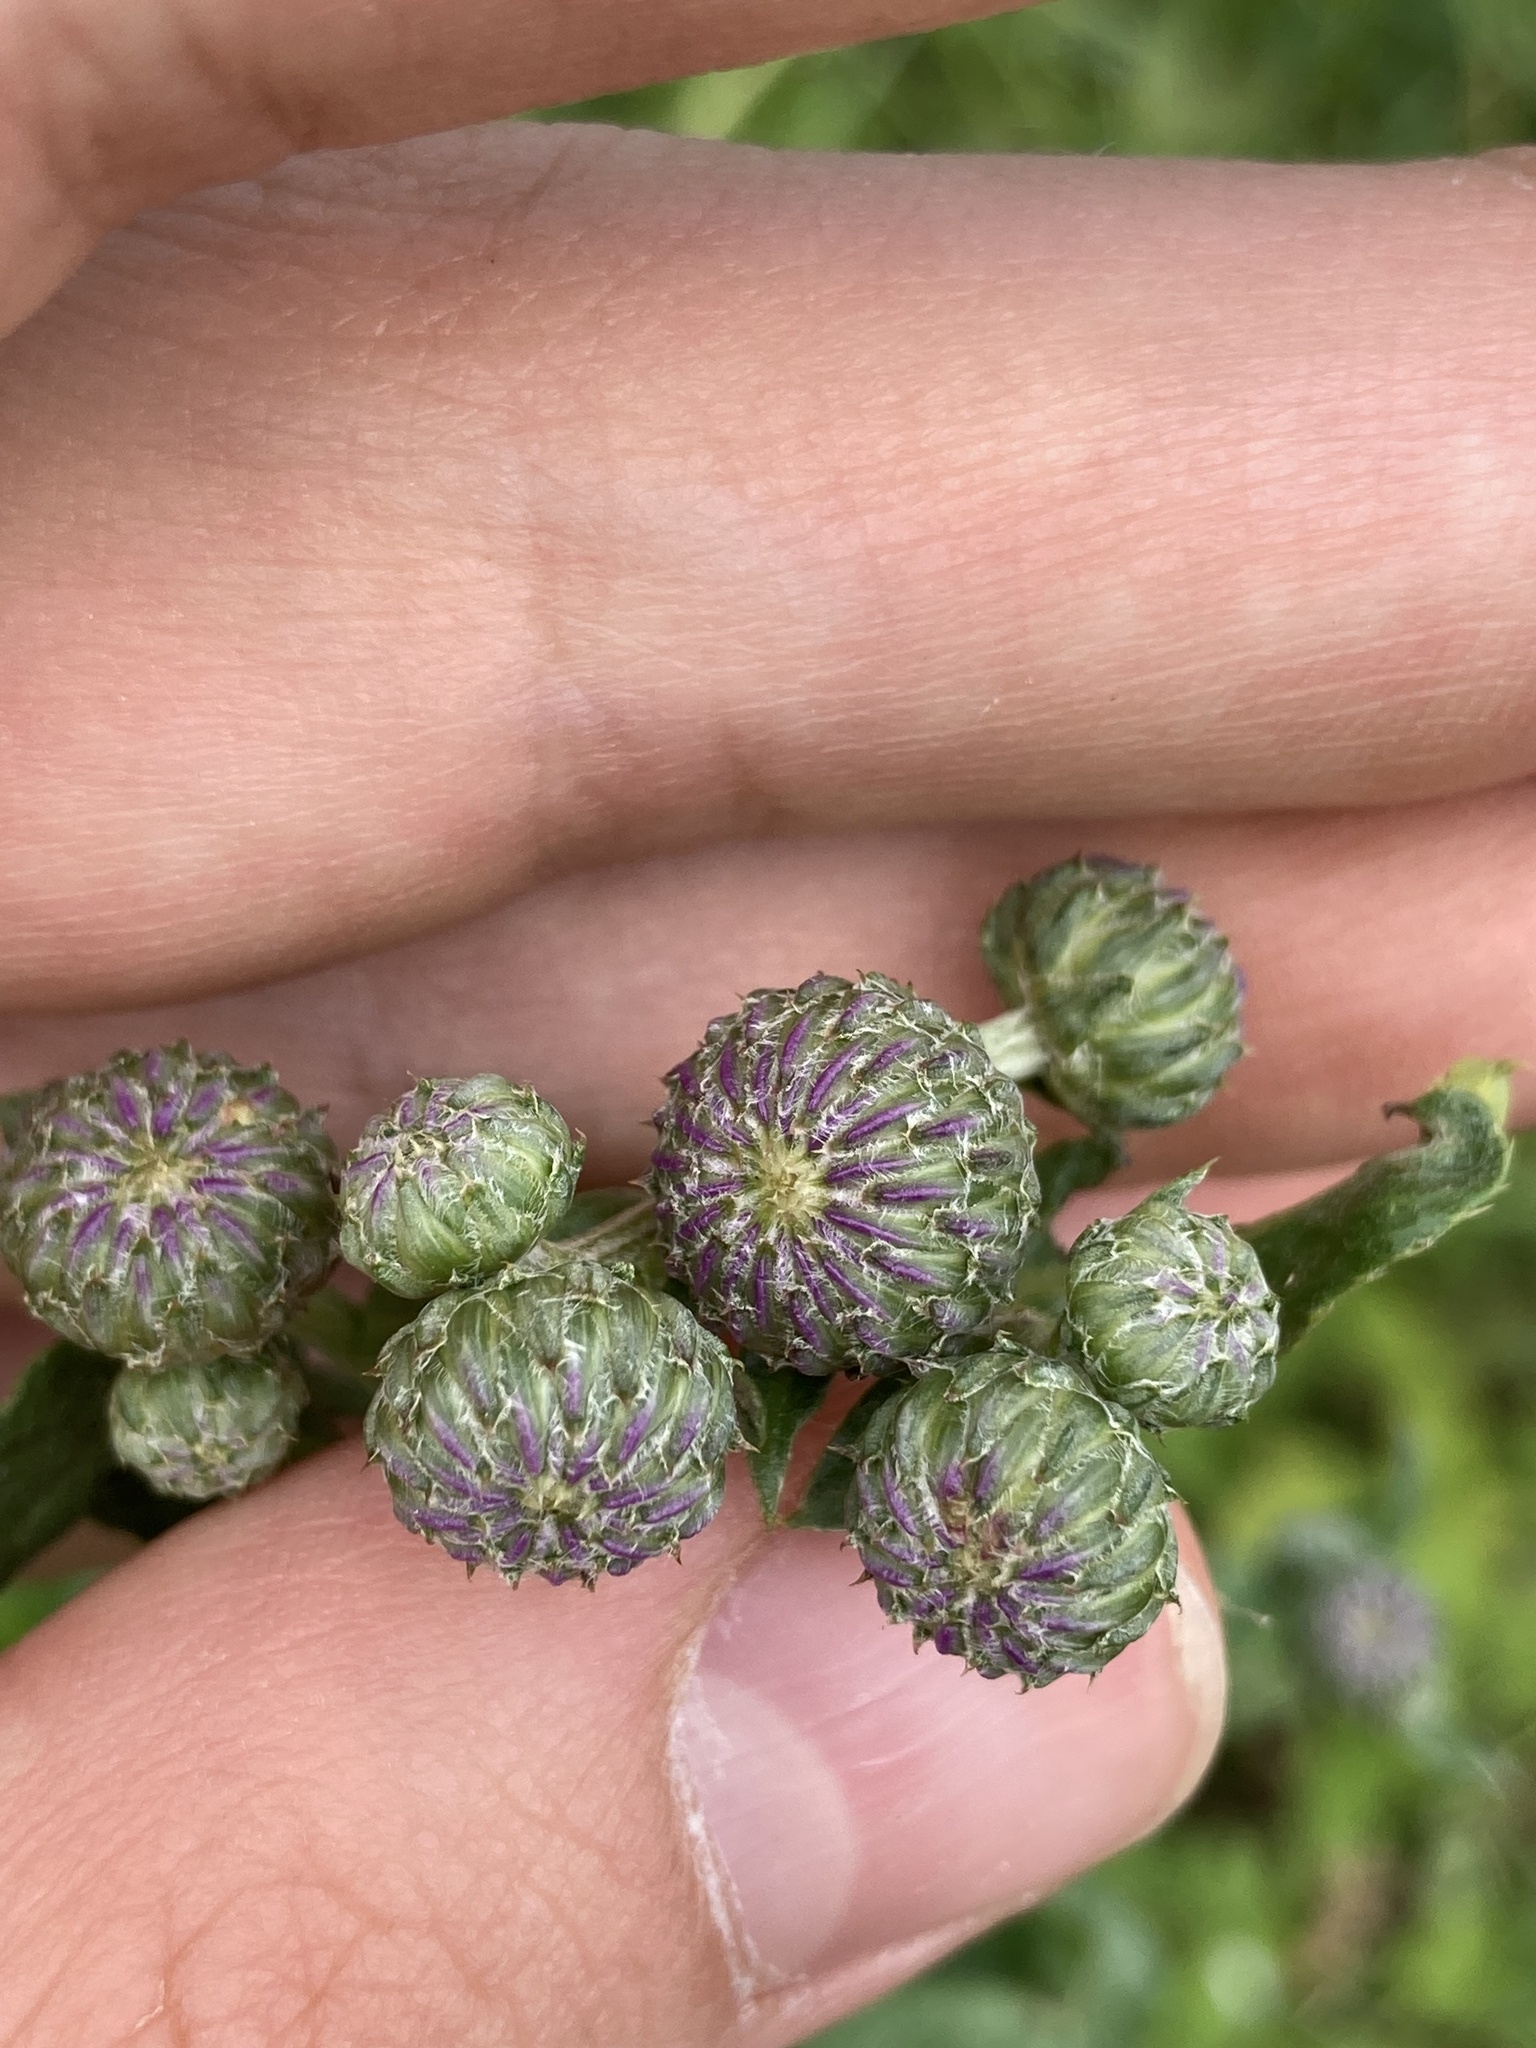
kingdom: Plantae
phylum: Tracheophyta
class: Magnoliopsida
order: Asterales
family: Asteraceae
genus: Cirsium
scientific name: Cirsium arvense
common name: Creeping thistle
